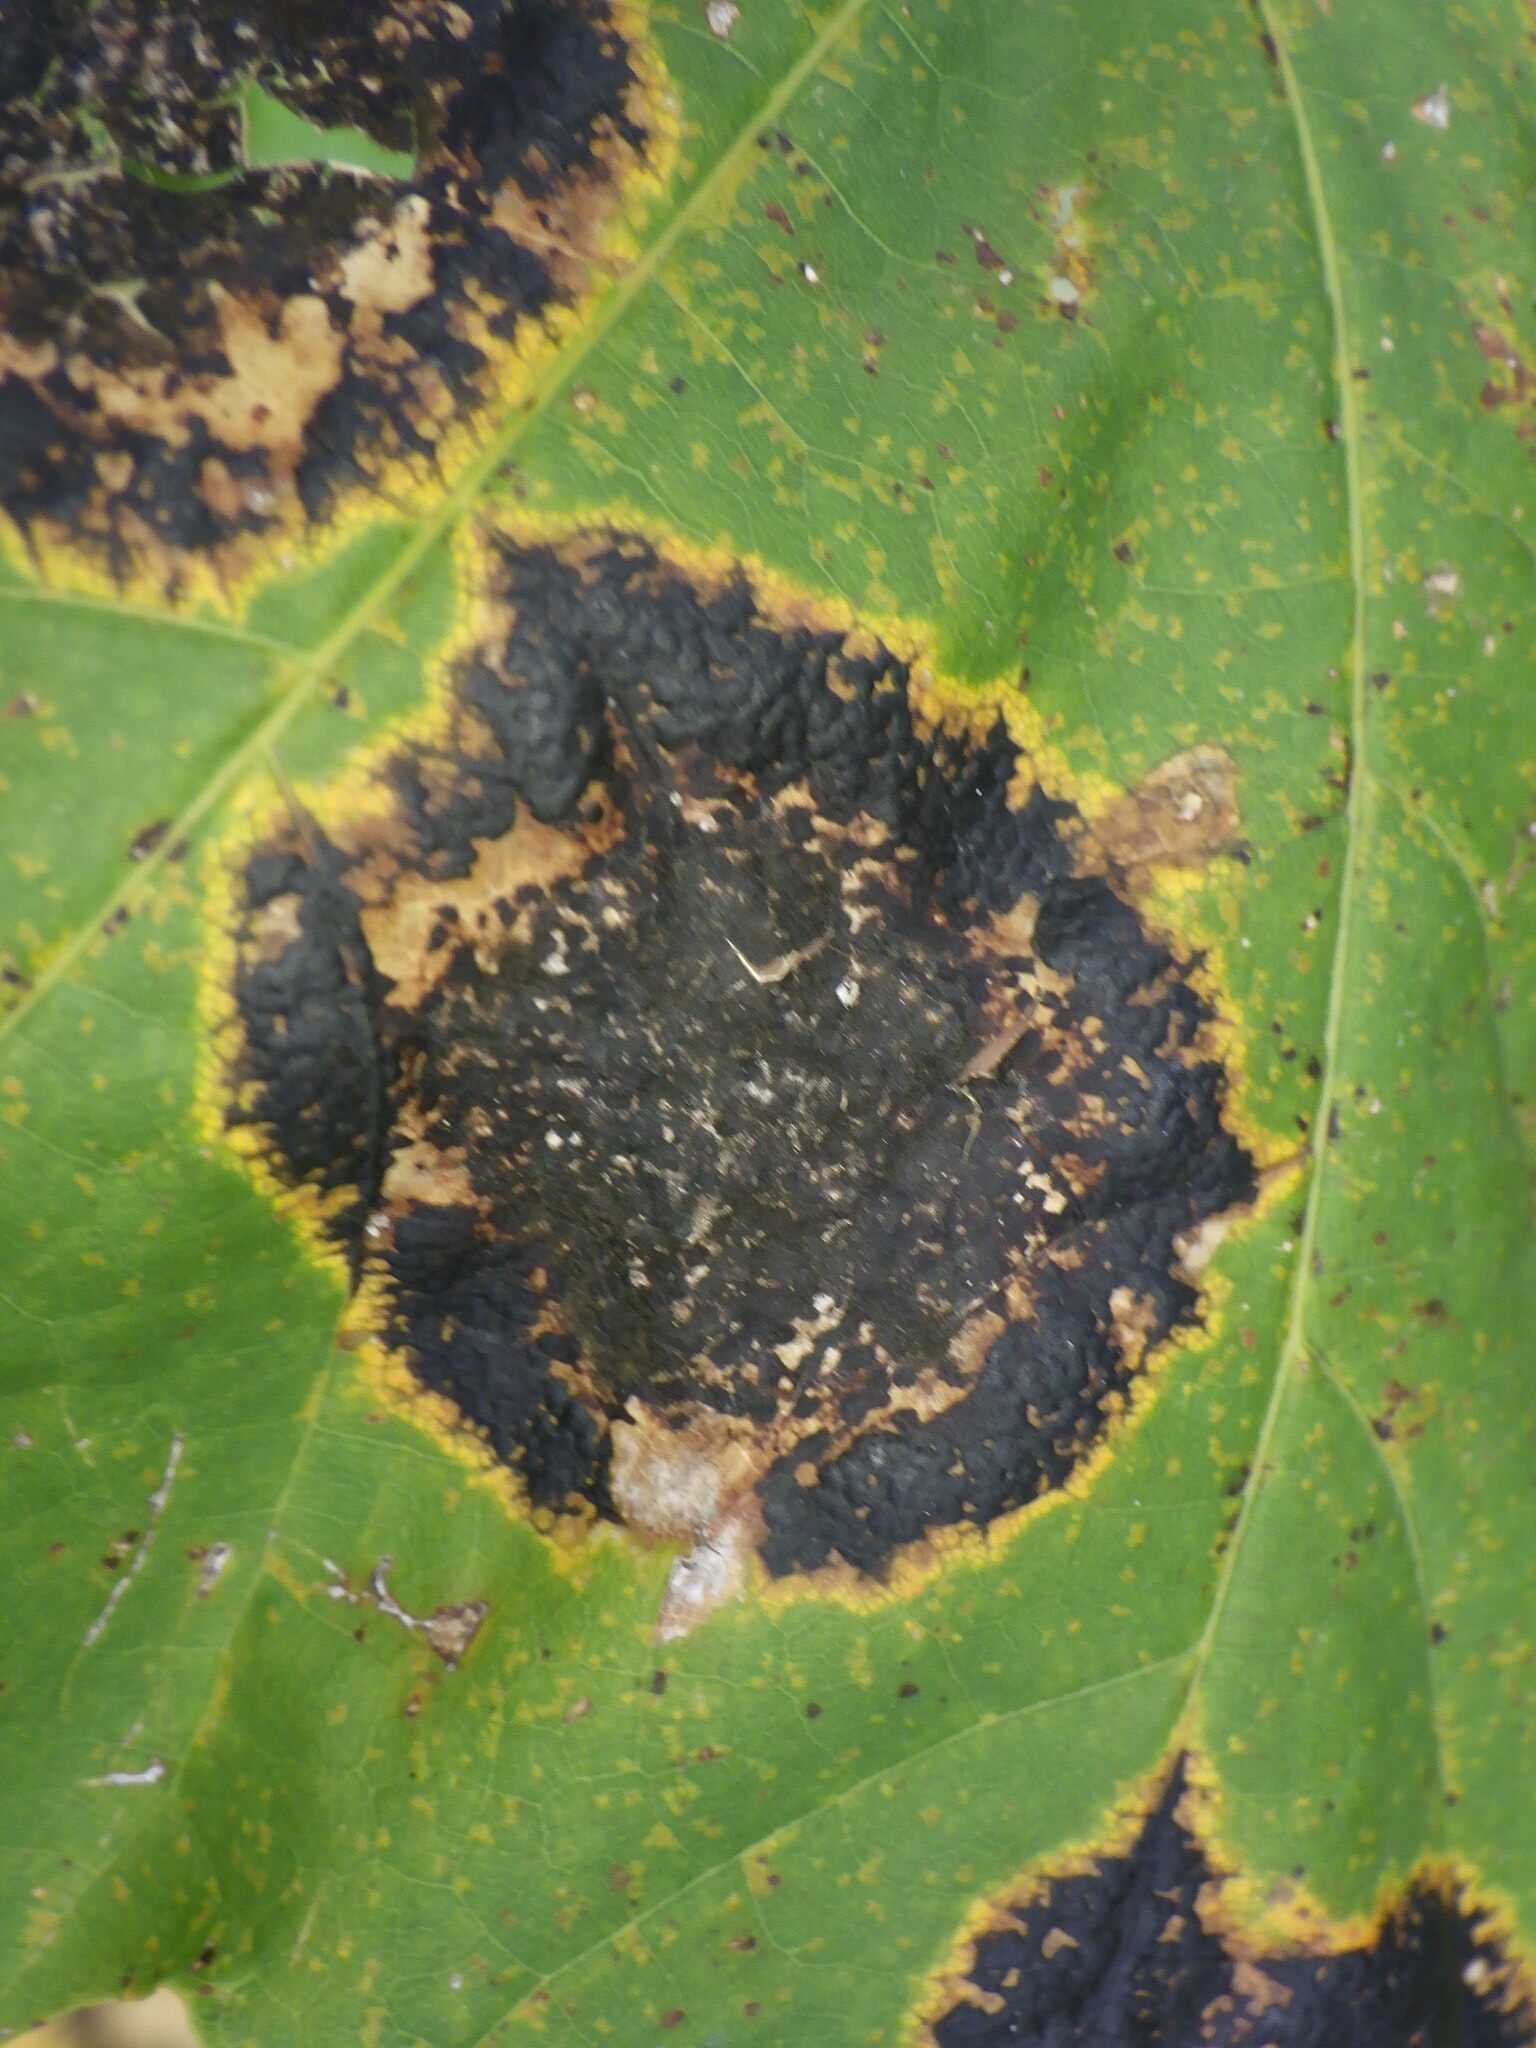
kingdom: Fungi
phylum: Ascomycota
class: Leotiomycetes
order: Rhytismatales
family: Rhytismataceae
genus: Rhytisma
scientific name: Rhytisma americanum
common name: American tar spot
